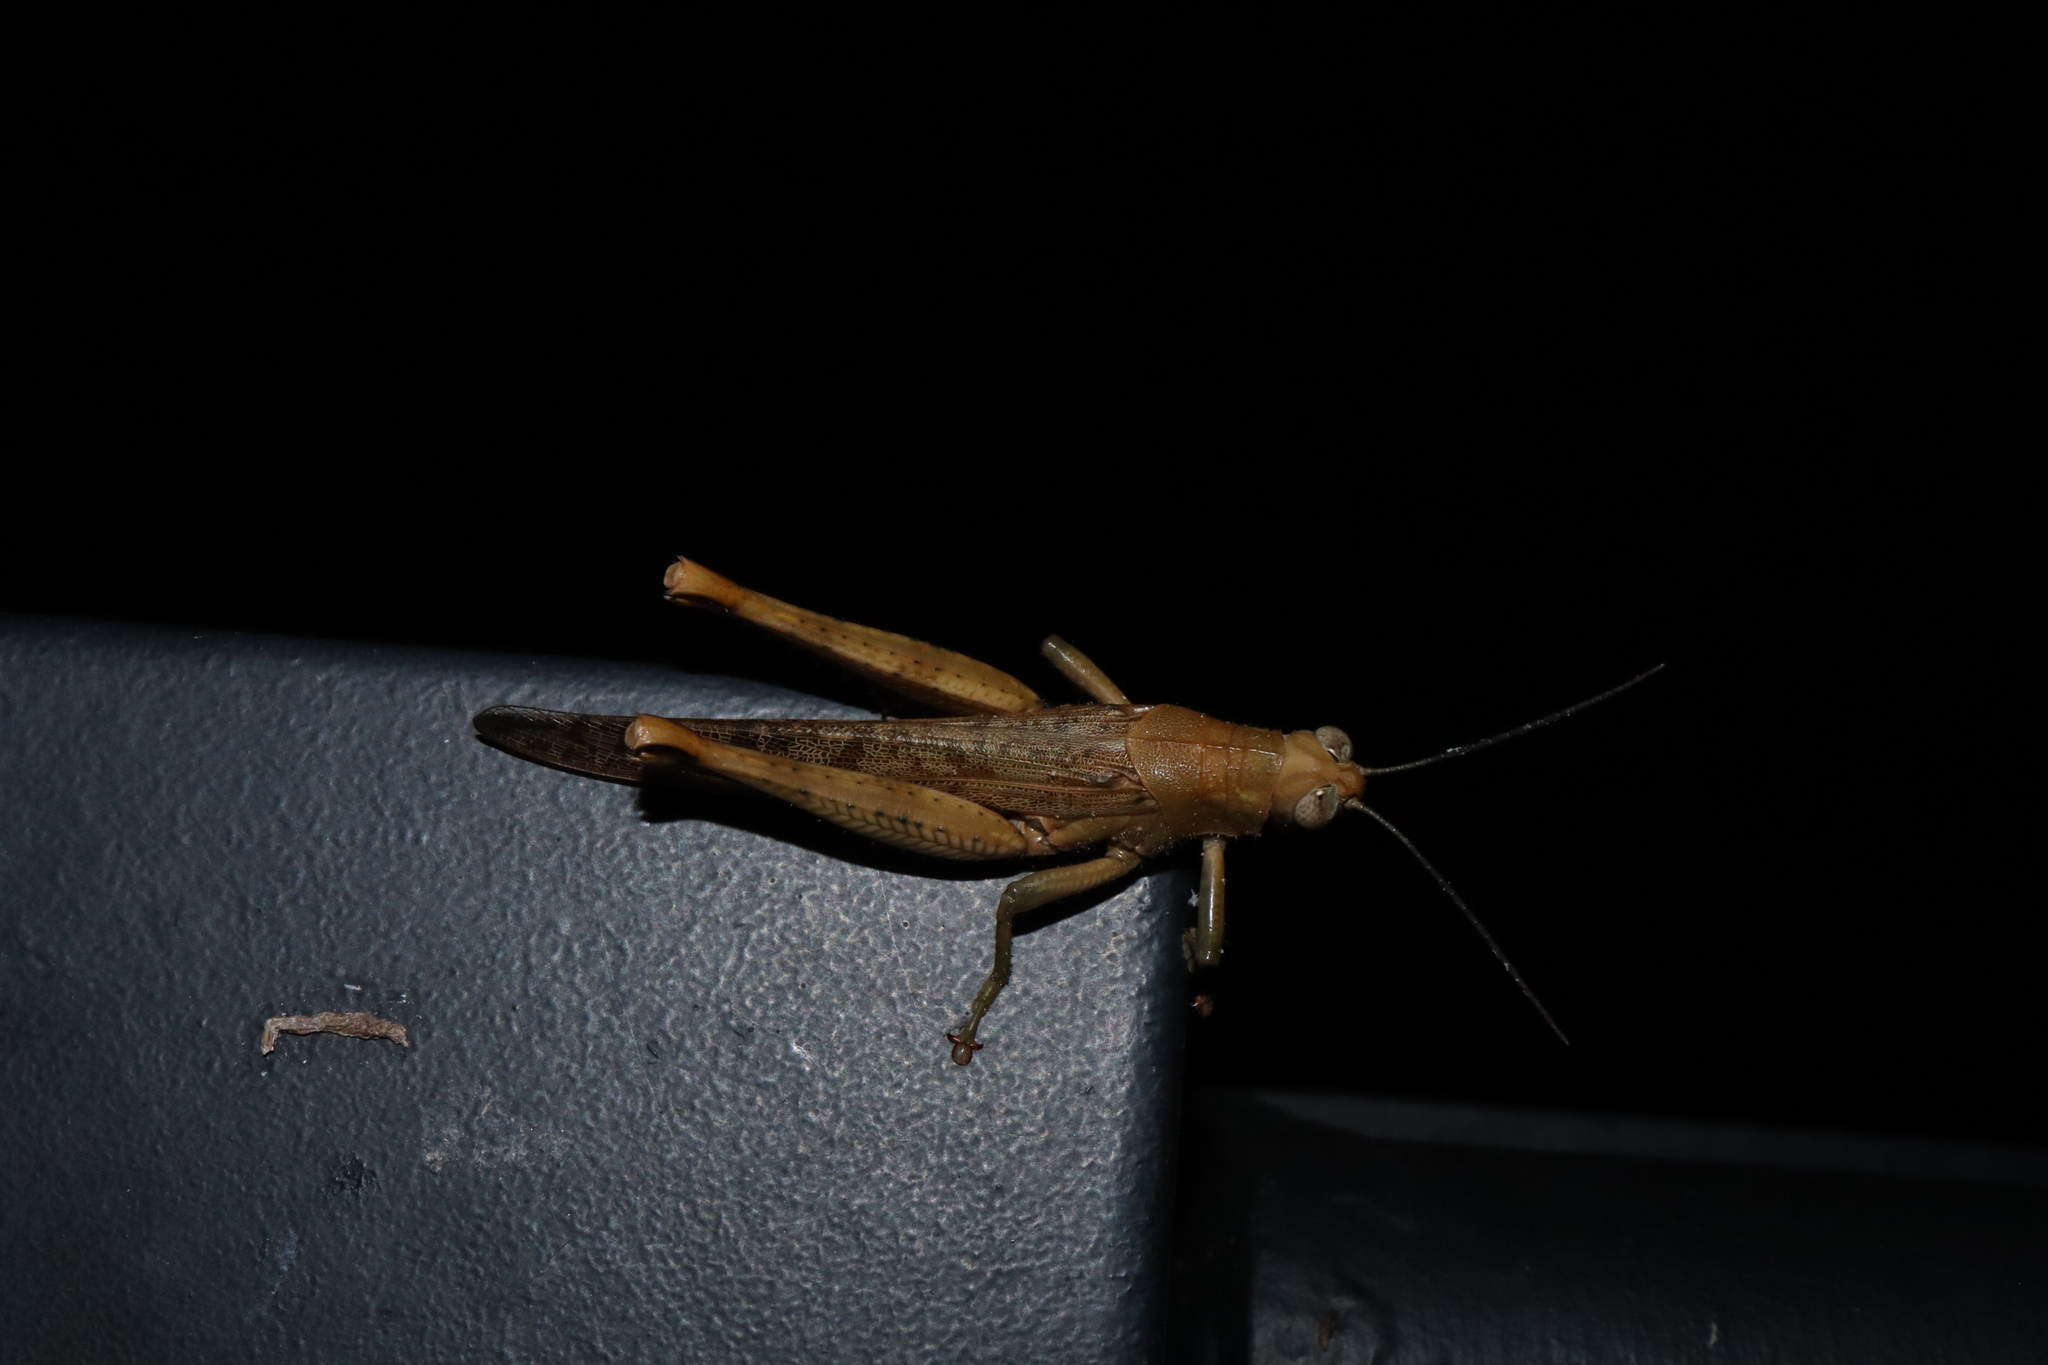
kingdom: Animalia
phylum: Arthropoda
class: Insecta
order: Orthoptera
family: Acrididae
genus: Valanga
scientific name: Valanga irregularis
